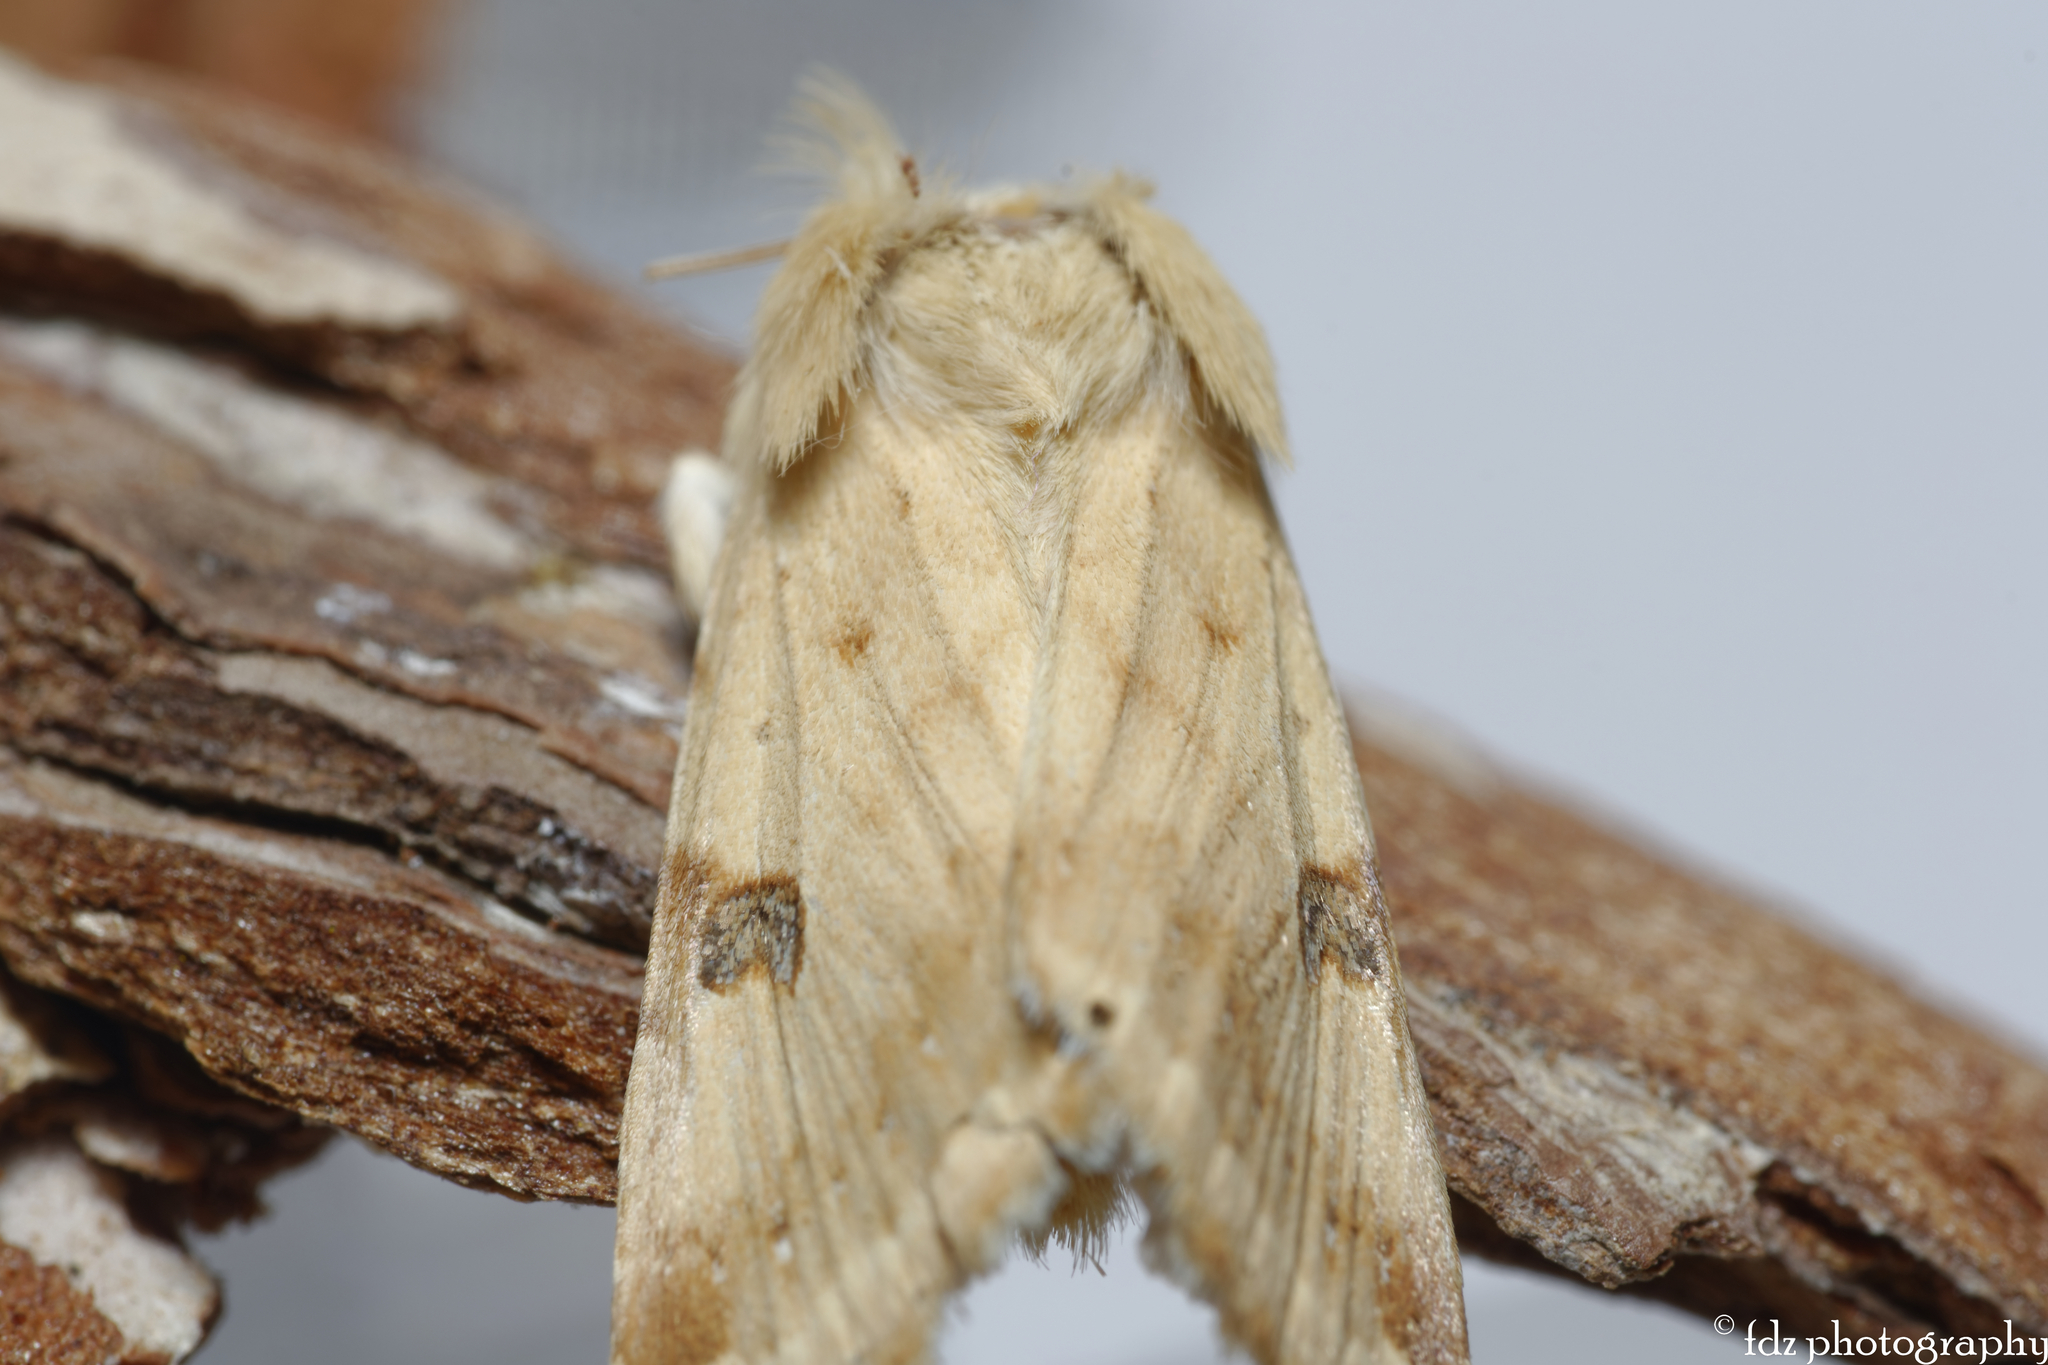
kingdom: Animalia
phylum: Arthropoda
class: Insecta
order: Lepidoptera
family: Noctuidae
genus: Heliothis
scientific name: Heliothis peltigera
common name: Bordered straw
